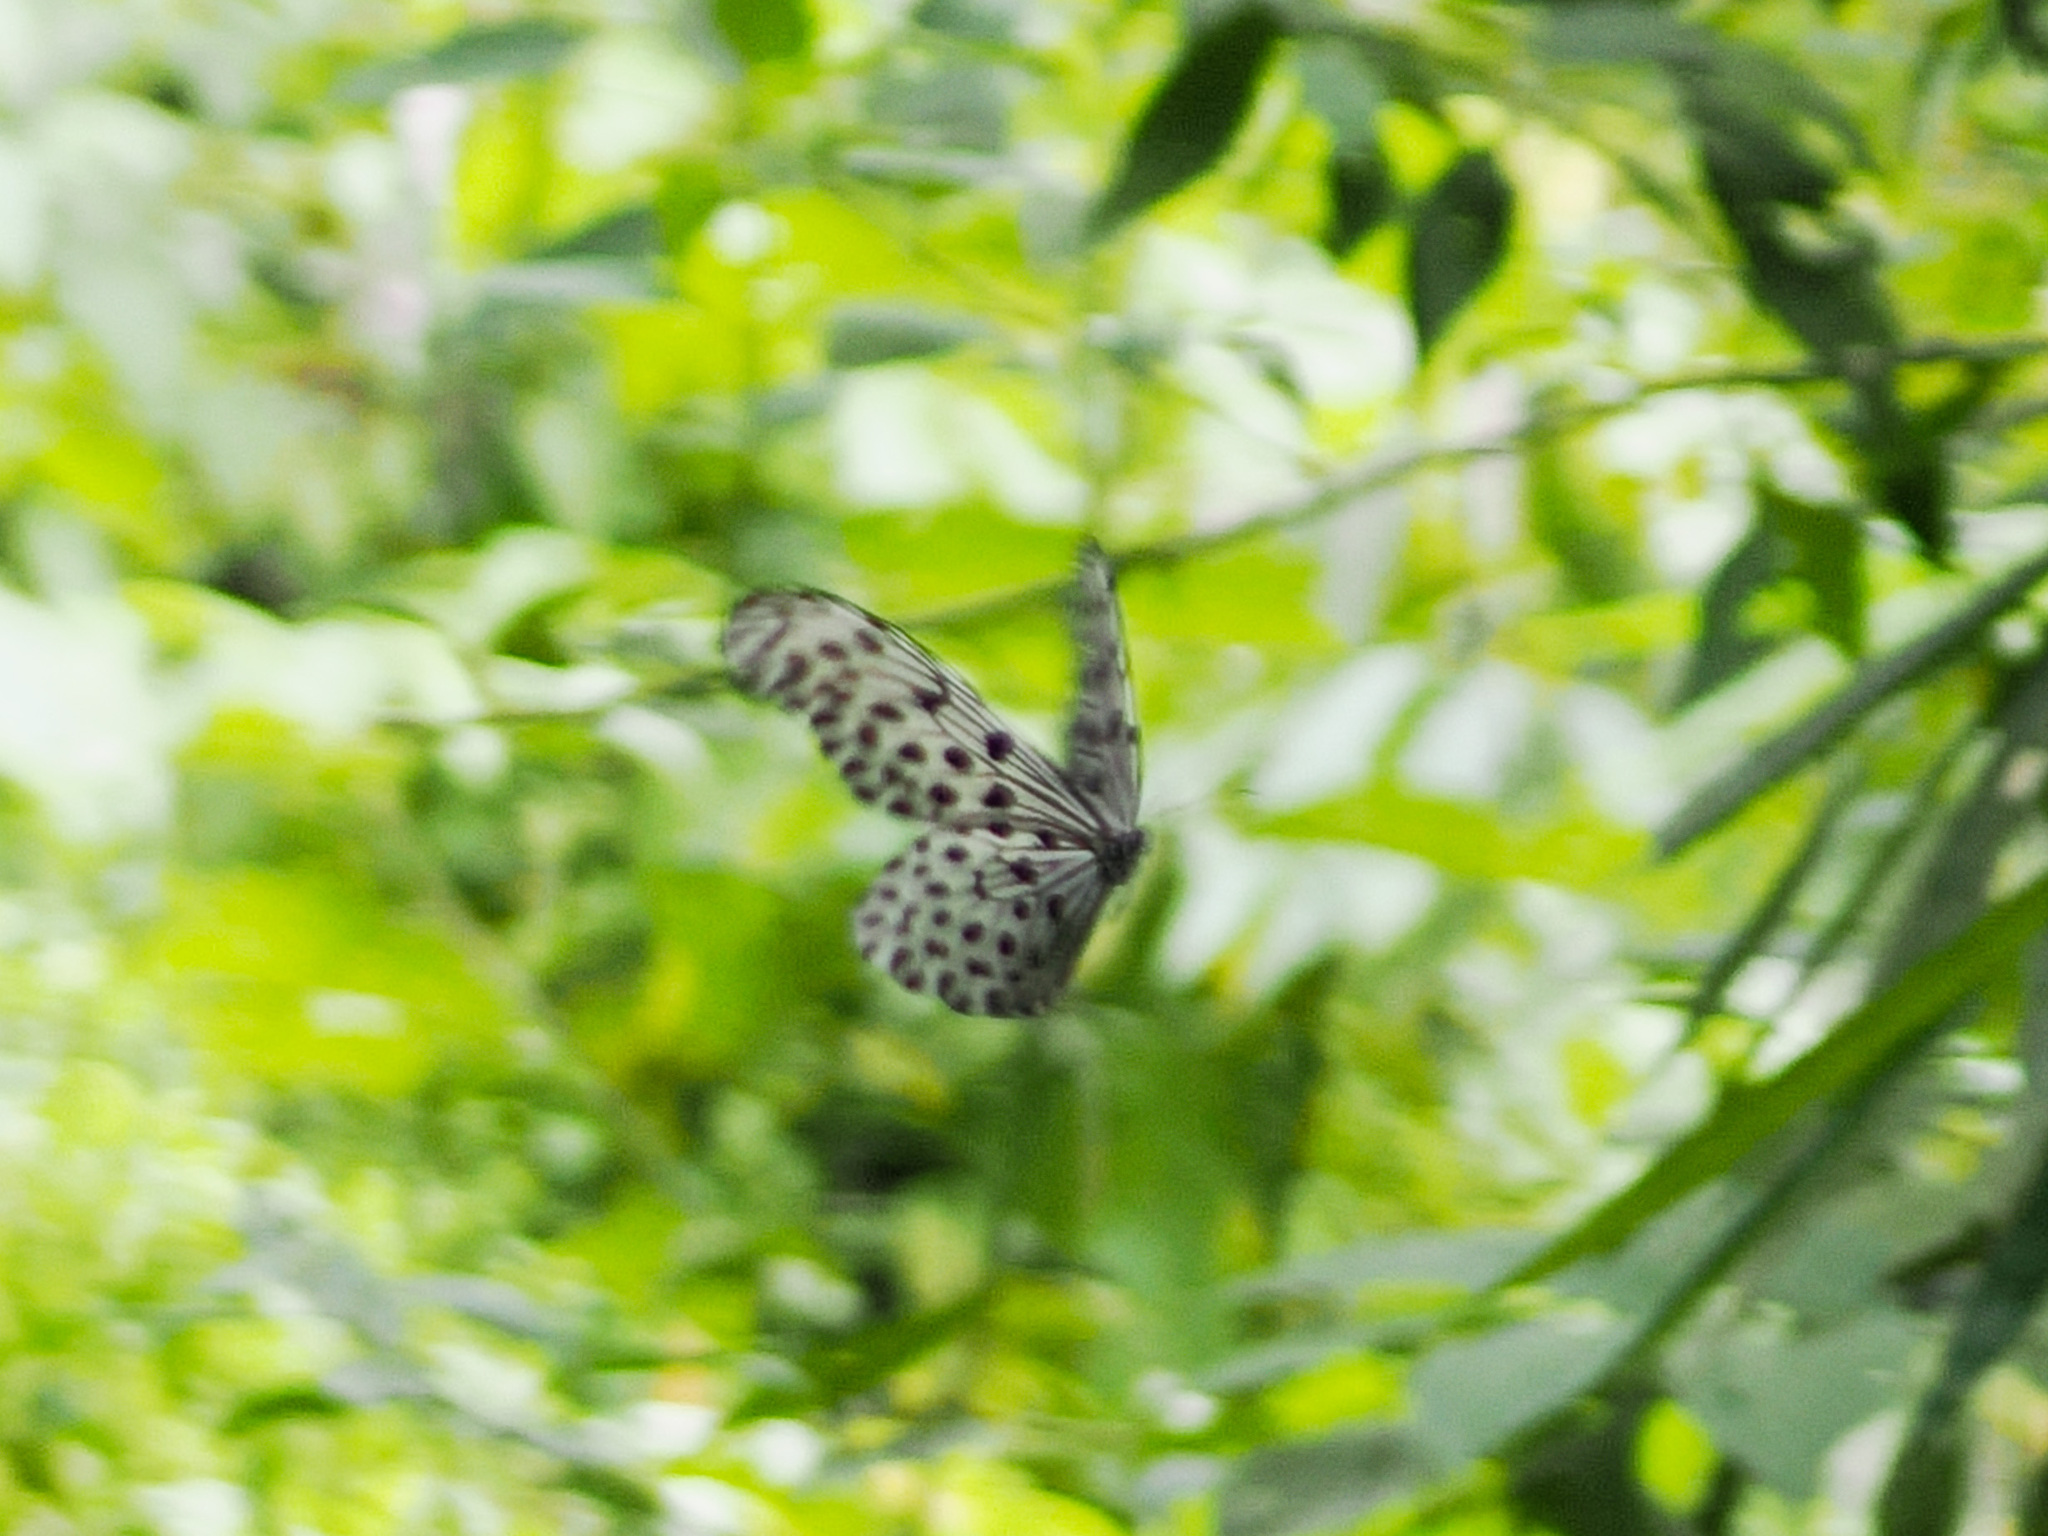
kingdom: Animalia
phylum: Arthropoda
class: Insecta
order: Lepidoptera
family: Nymphalidae
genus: Idea
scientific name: Idea stolli
